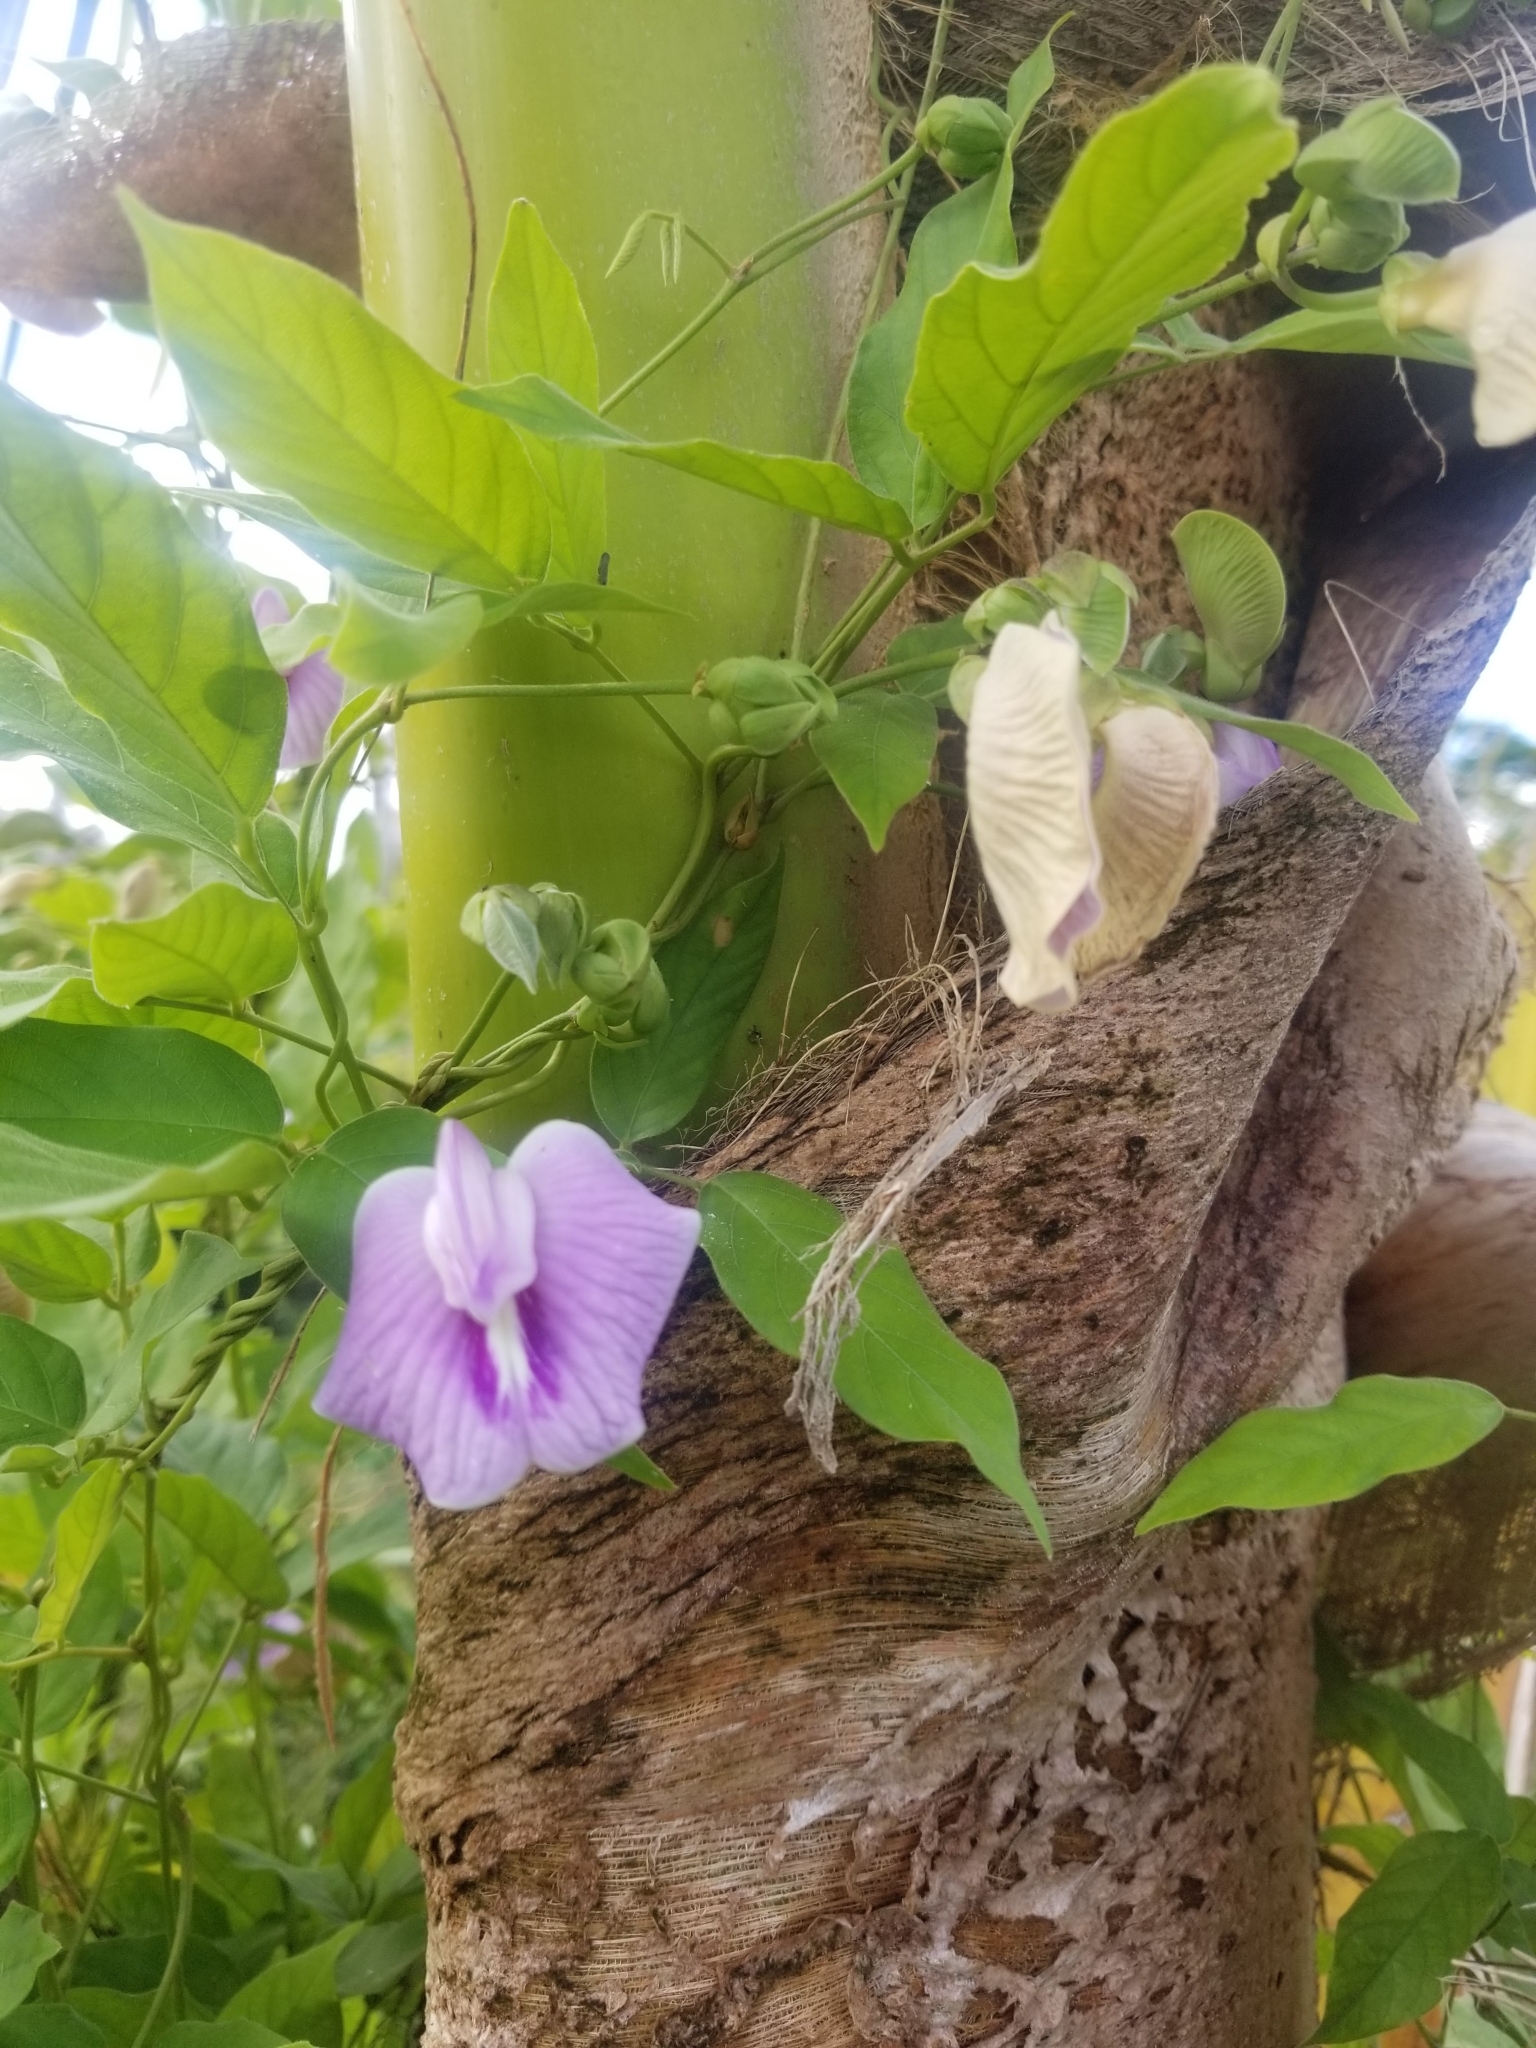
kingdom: Plantae
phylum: Tracheophyta
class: Magnoliopsida
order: Fabales
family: Fabaceae
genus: Centrosema
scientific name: Centrosema molle
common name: Soft butterfly pea
